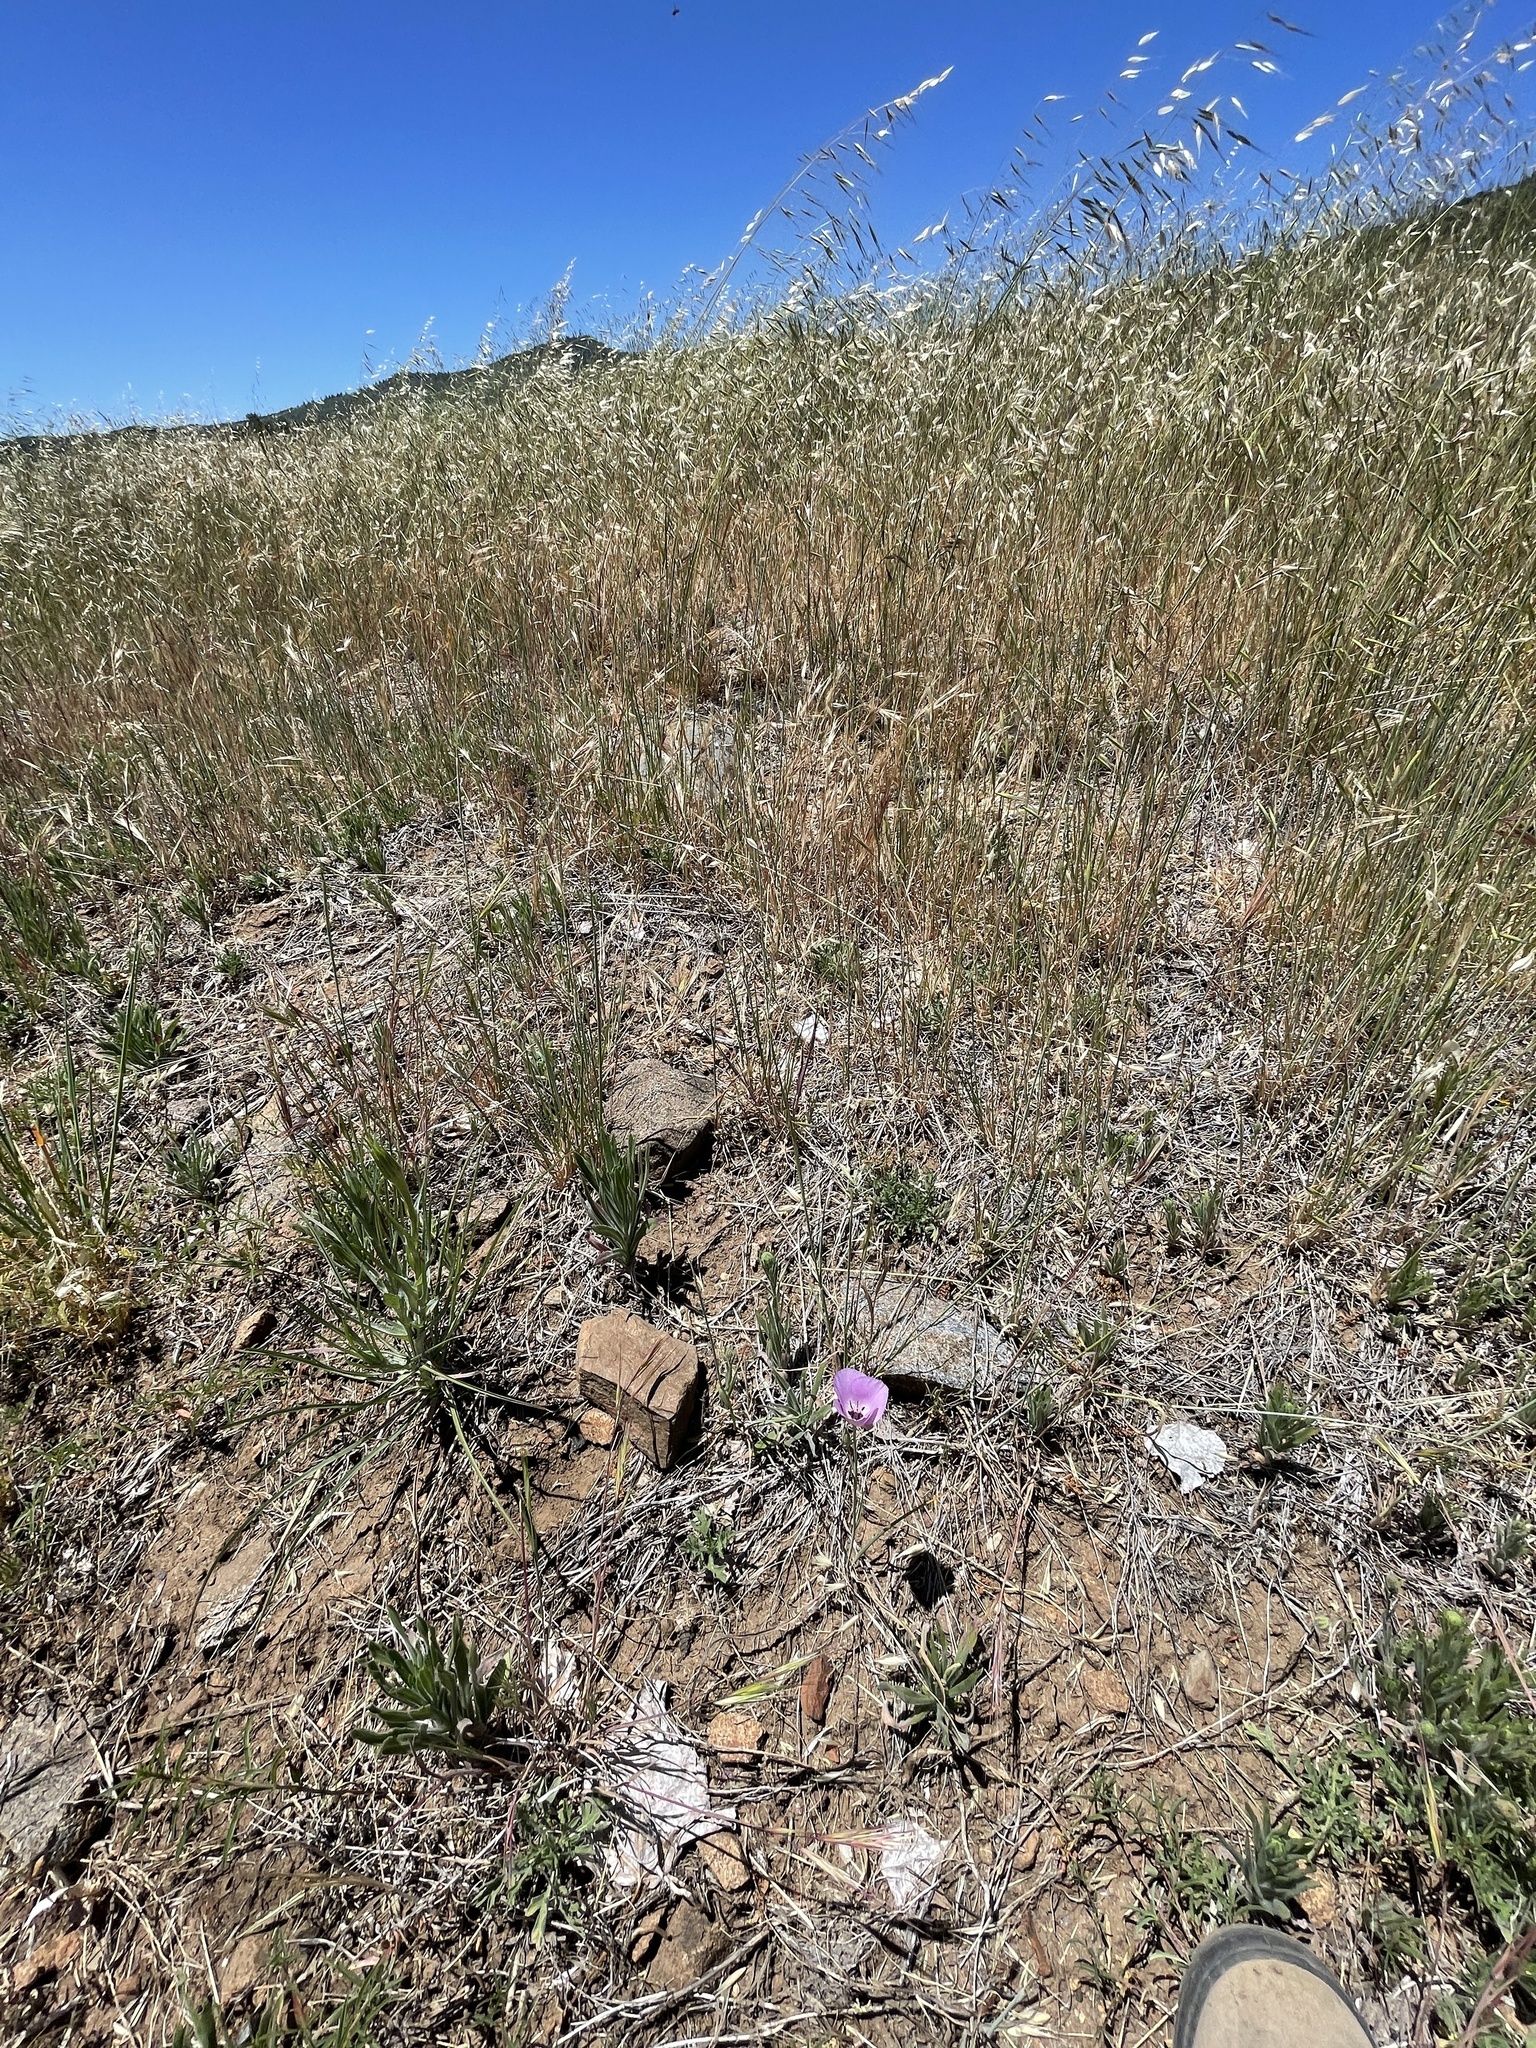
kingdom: Plantae
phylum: Tracheophyta
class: Liliopsida
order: Liliales
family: Liliaceae
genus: Calochortus
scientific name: Calochortus splendens
